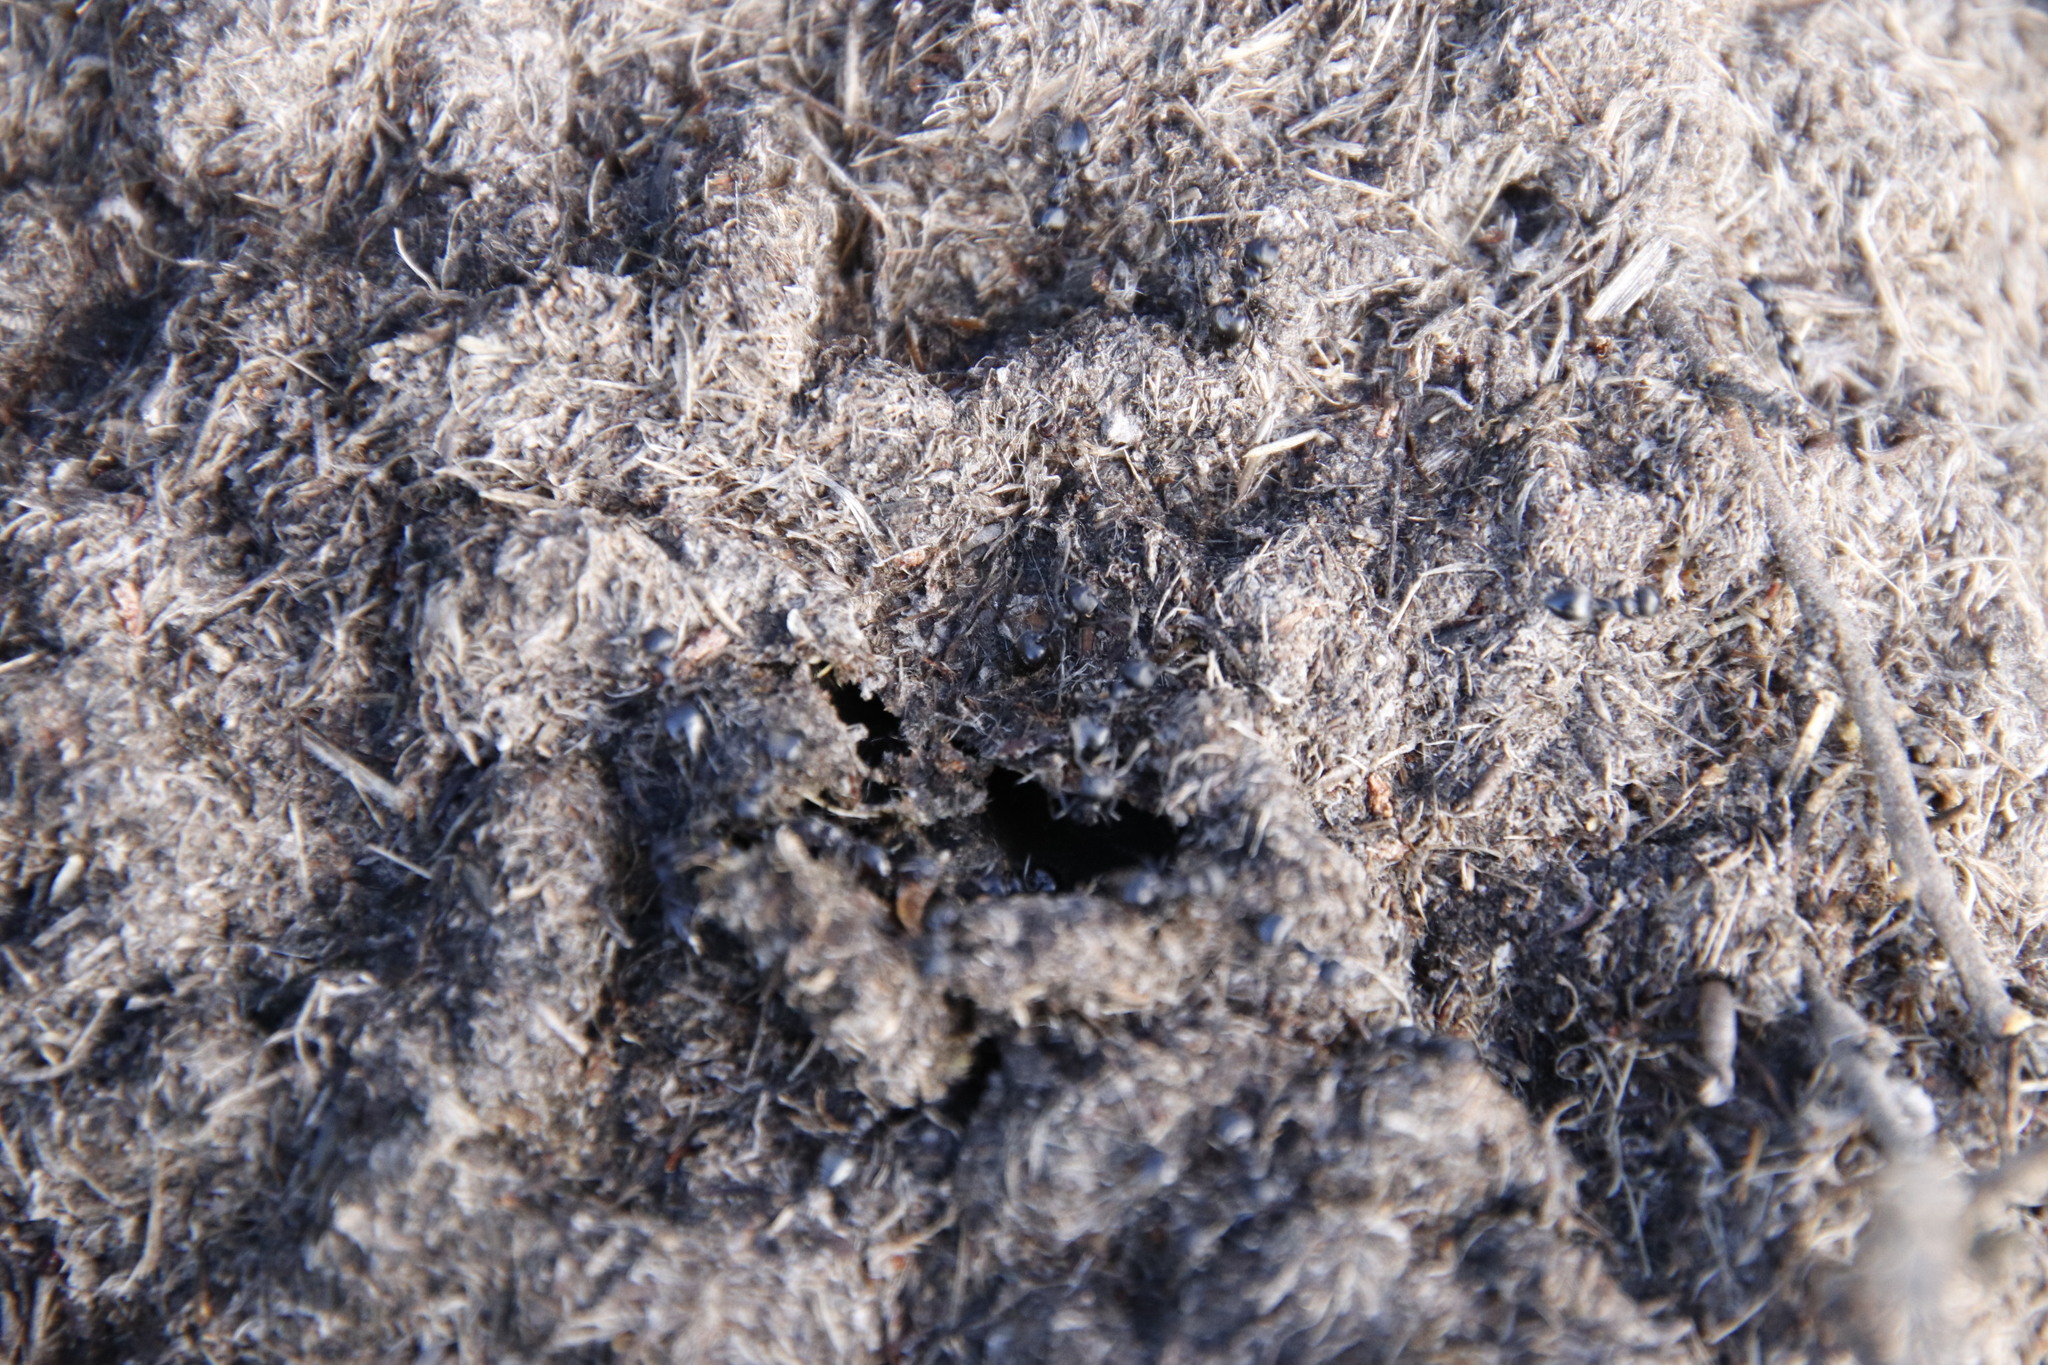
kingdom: Animalia
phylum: Arthropoda
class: Insecta
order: Hymenoptera
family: Formicidae
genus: Crematogaster
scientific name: Crematogaster peringueyi
